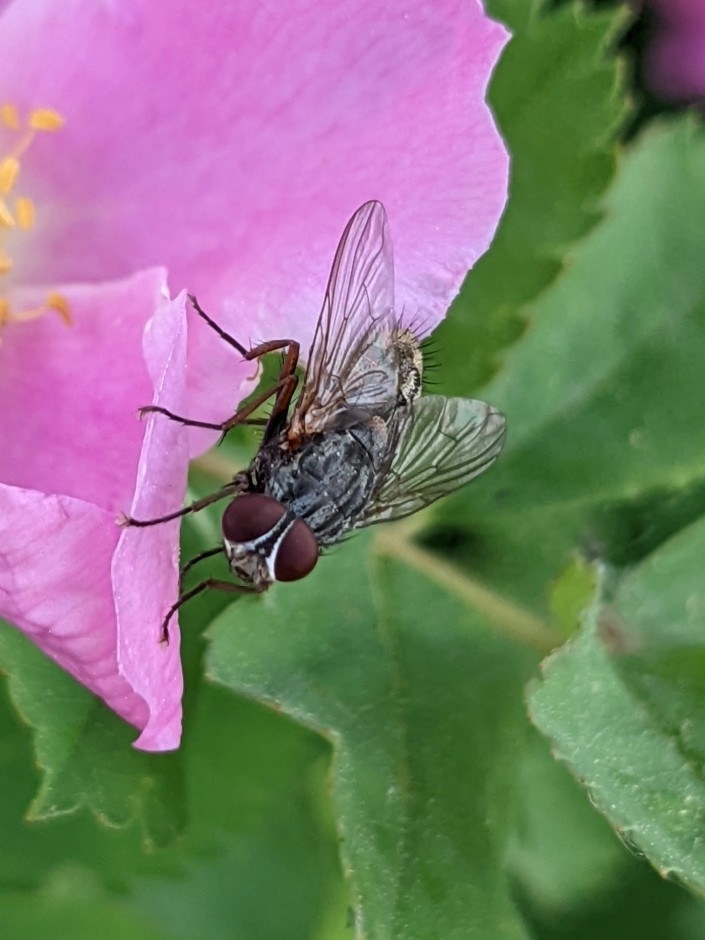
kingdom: Animalia
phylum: Arthropoda
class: Insecta
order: Diptera
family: Muscidae
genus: Muscina
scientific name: Muscina stabulans
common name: False stable fly
